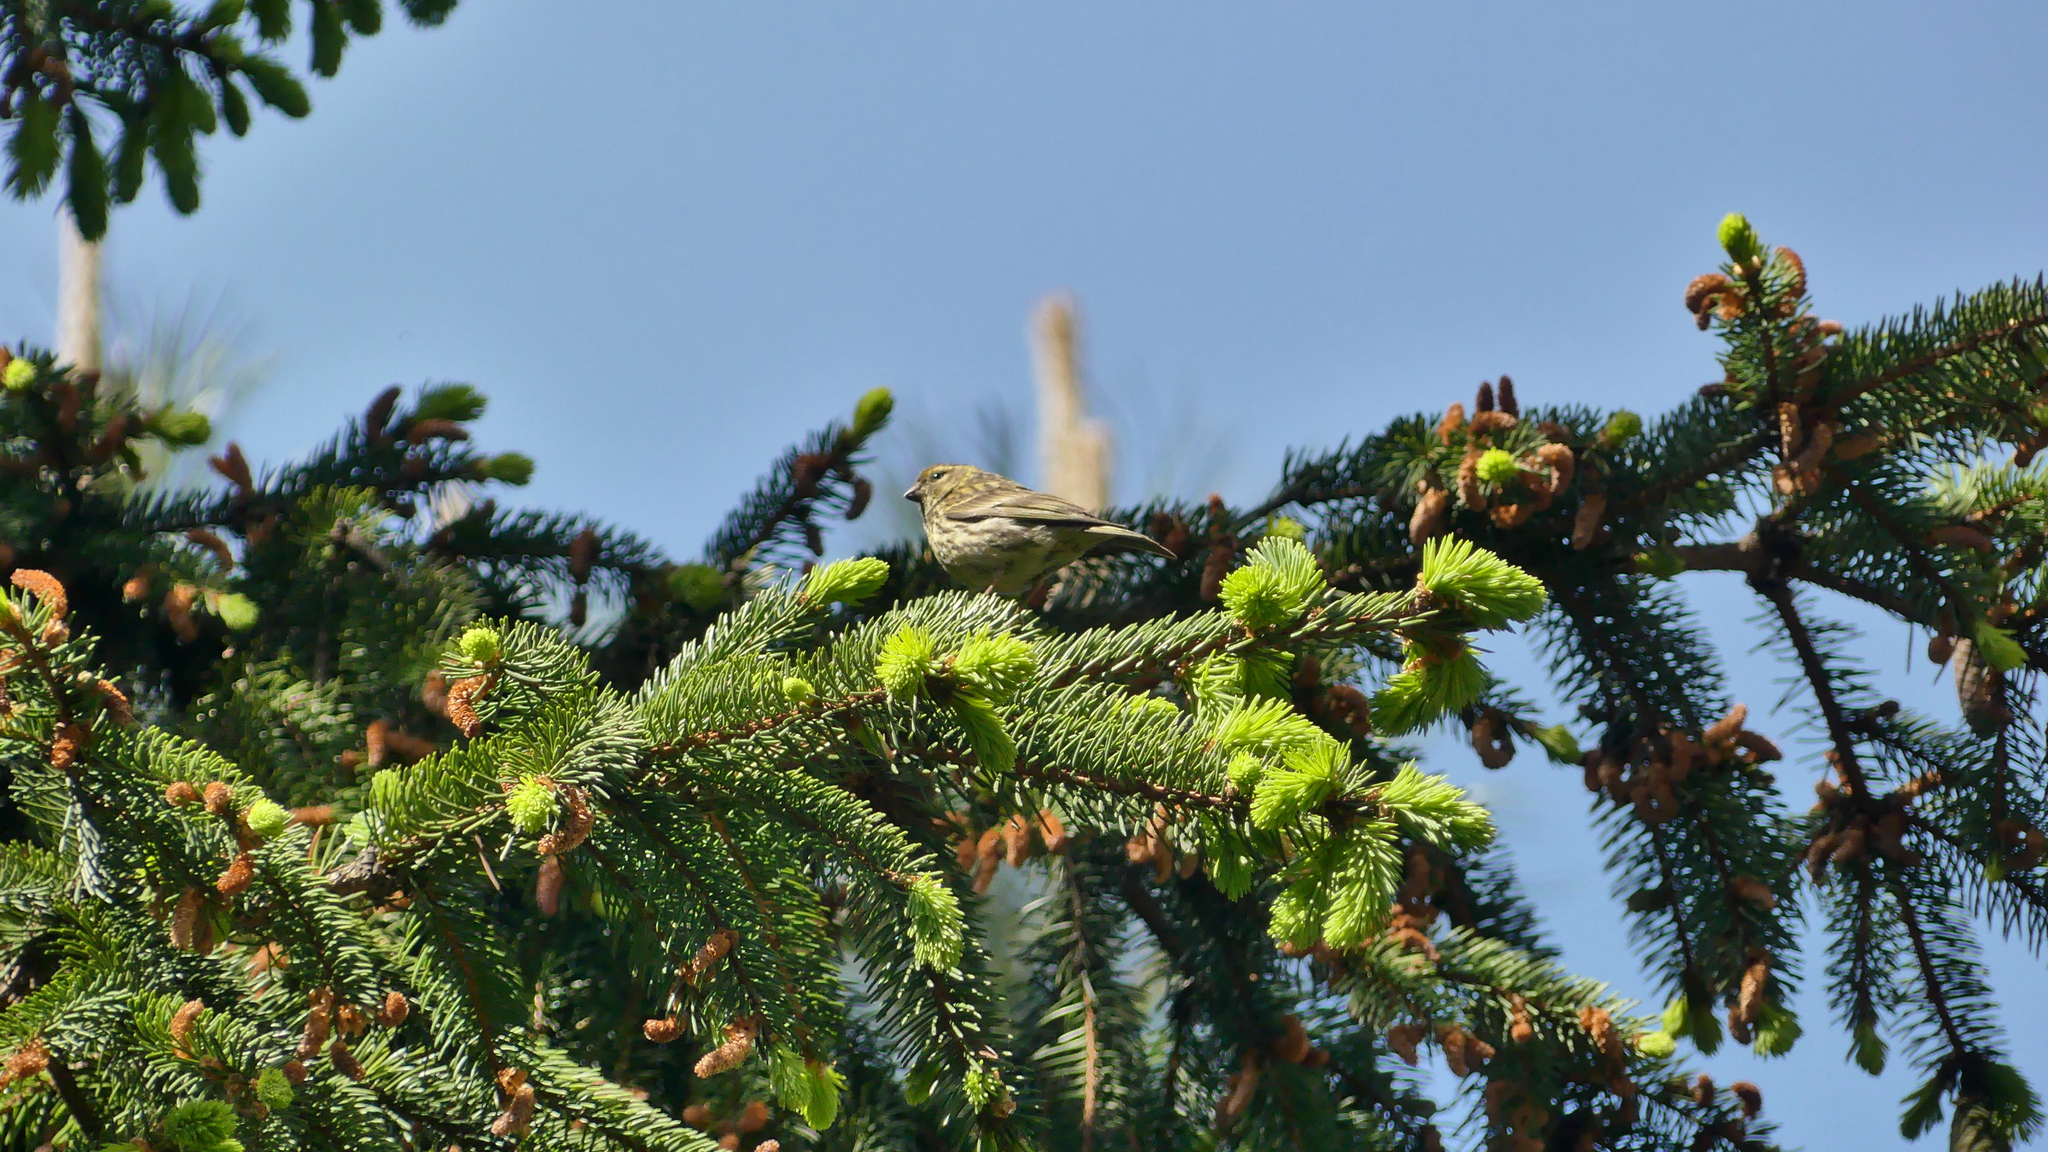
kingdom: Animalia
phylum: Chordata
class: Aves
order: Passeriformes
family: Fringillidae
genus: Serinus
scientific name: Serinus serinus
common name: European serin
